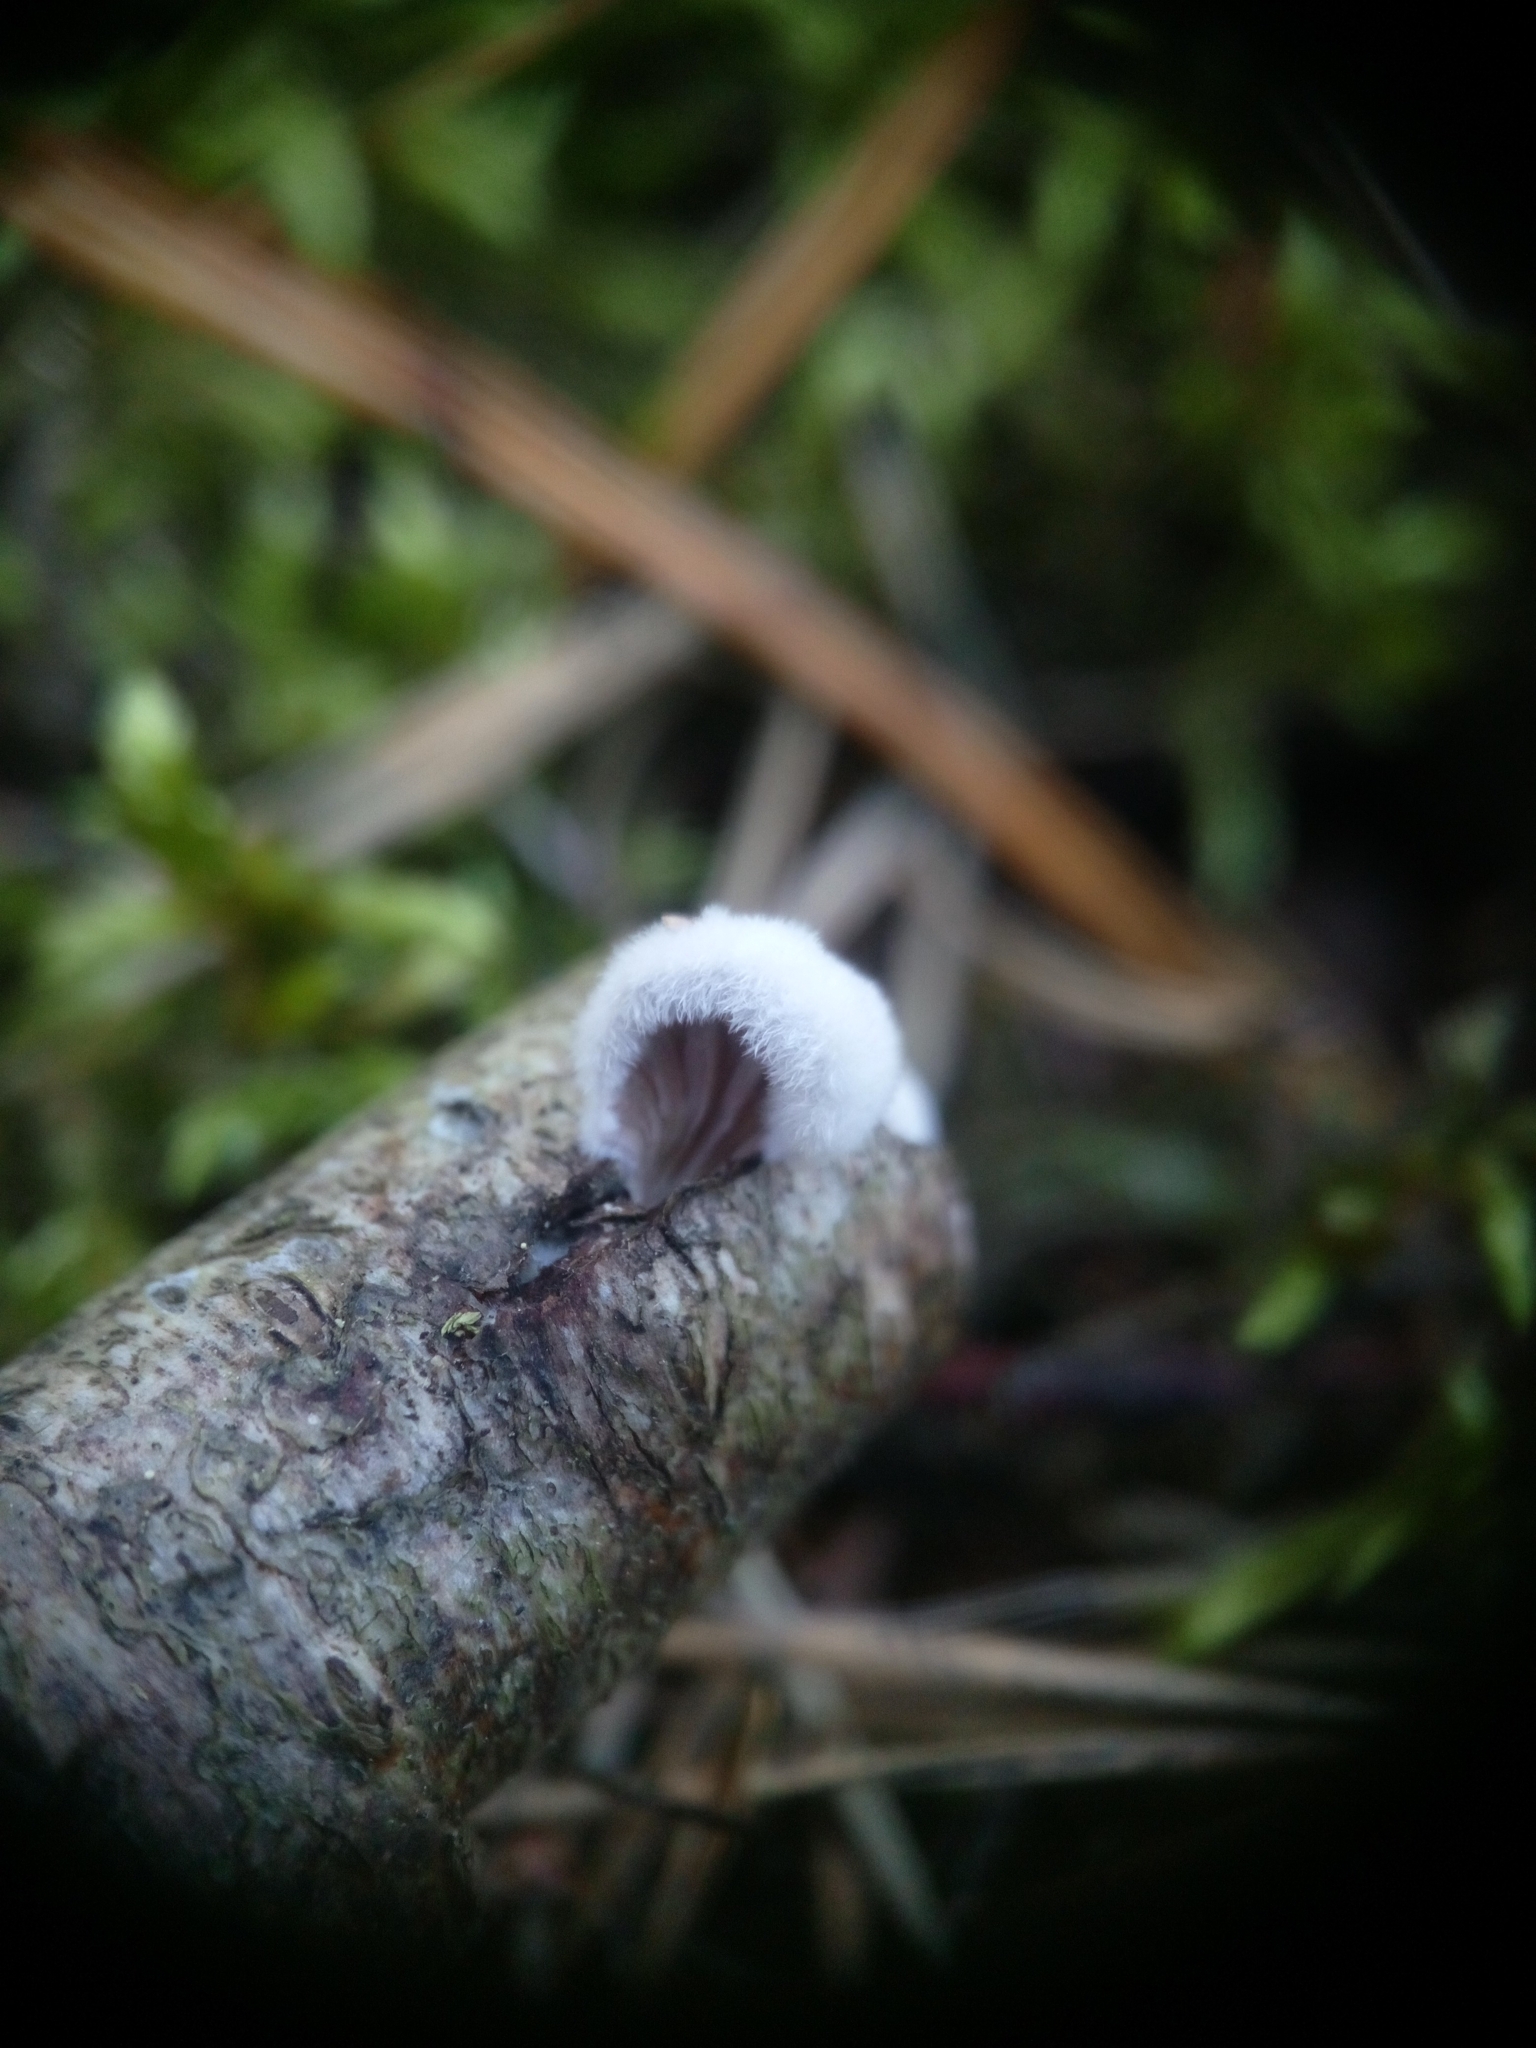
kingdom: Fungi
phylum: Basidiomycota
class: Agaricomycetes
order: Agaricales
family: Schizophyllaceae
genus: Schizophyllum
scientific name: Schizophyllum commune
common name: Common porecrust
